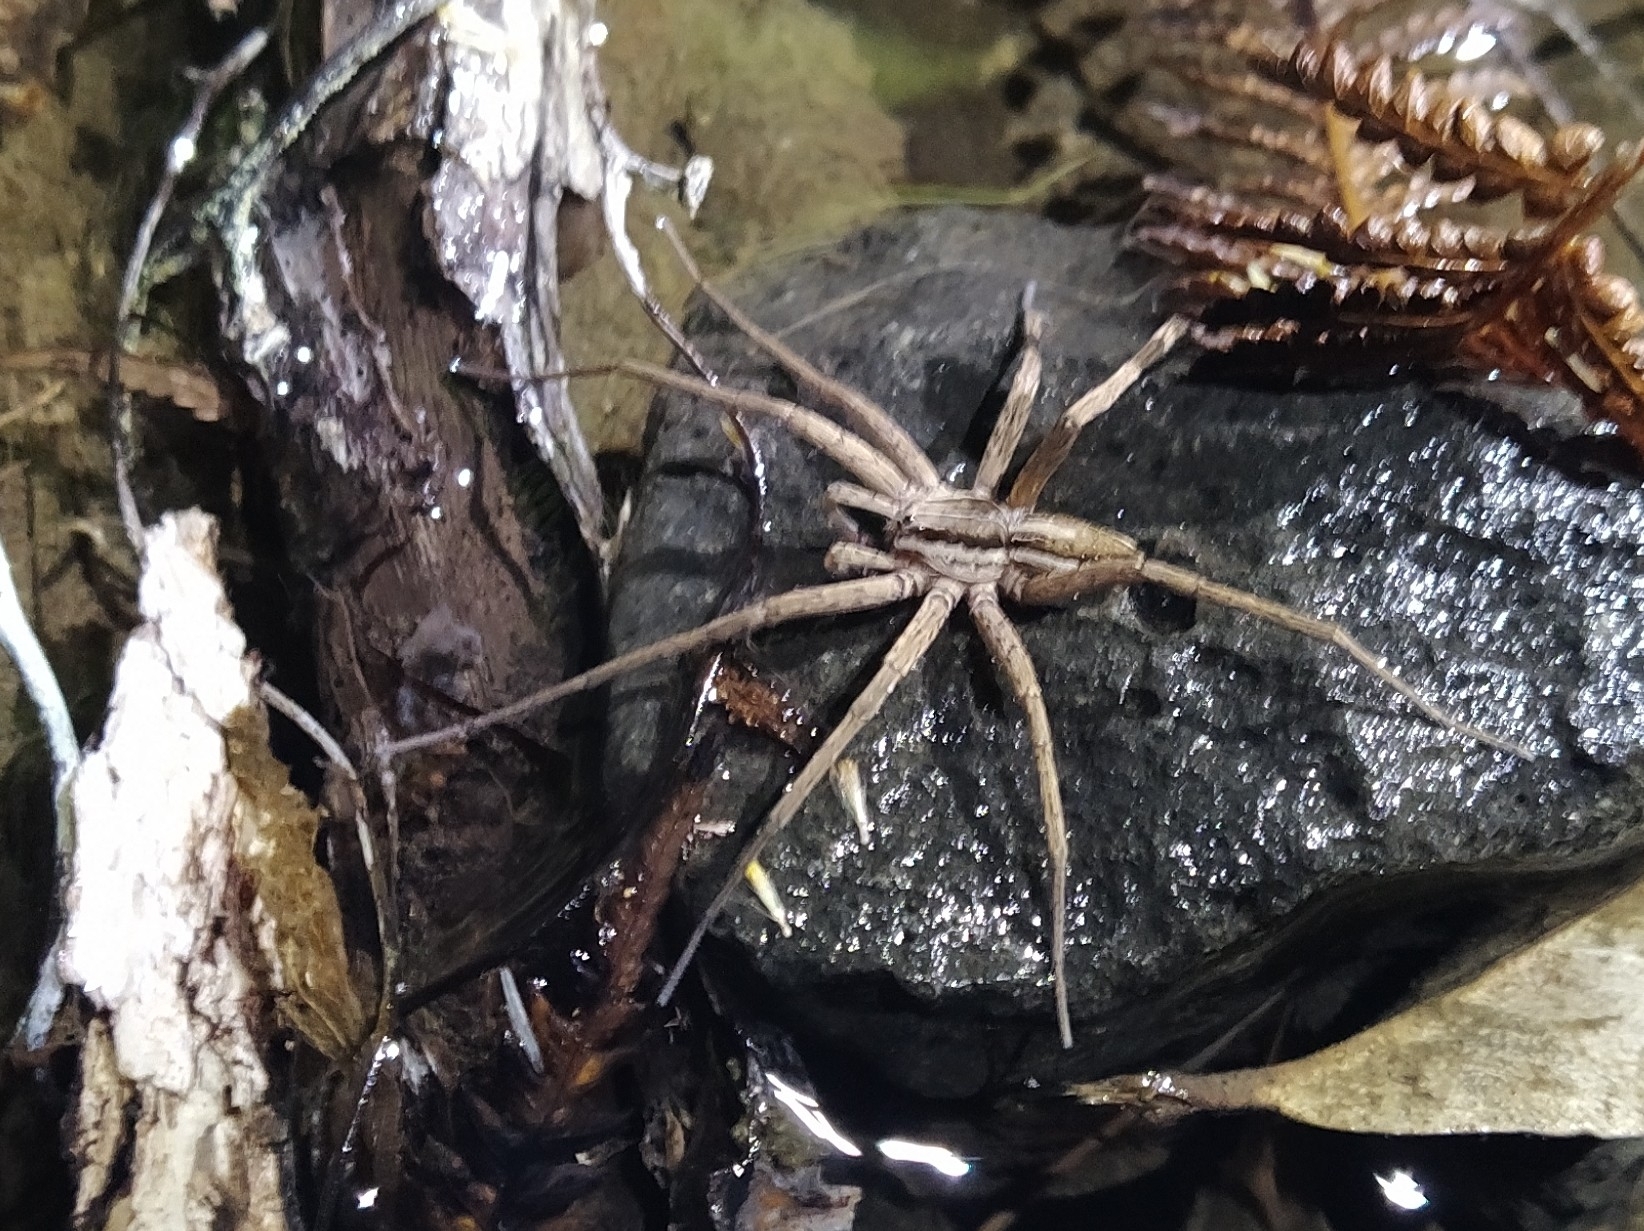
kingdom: Animalia
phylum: Arthropoda
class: Arachnida
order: Araneae
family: Pisauridae
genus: Dolomedes
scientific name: Dolomedes minor
